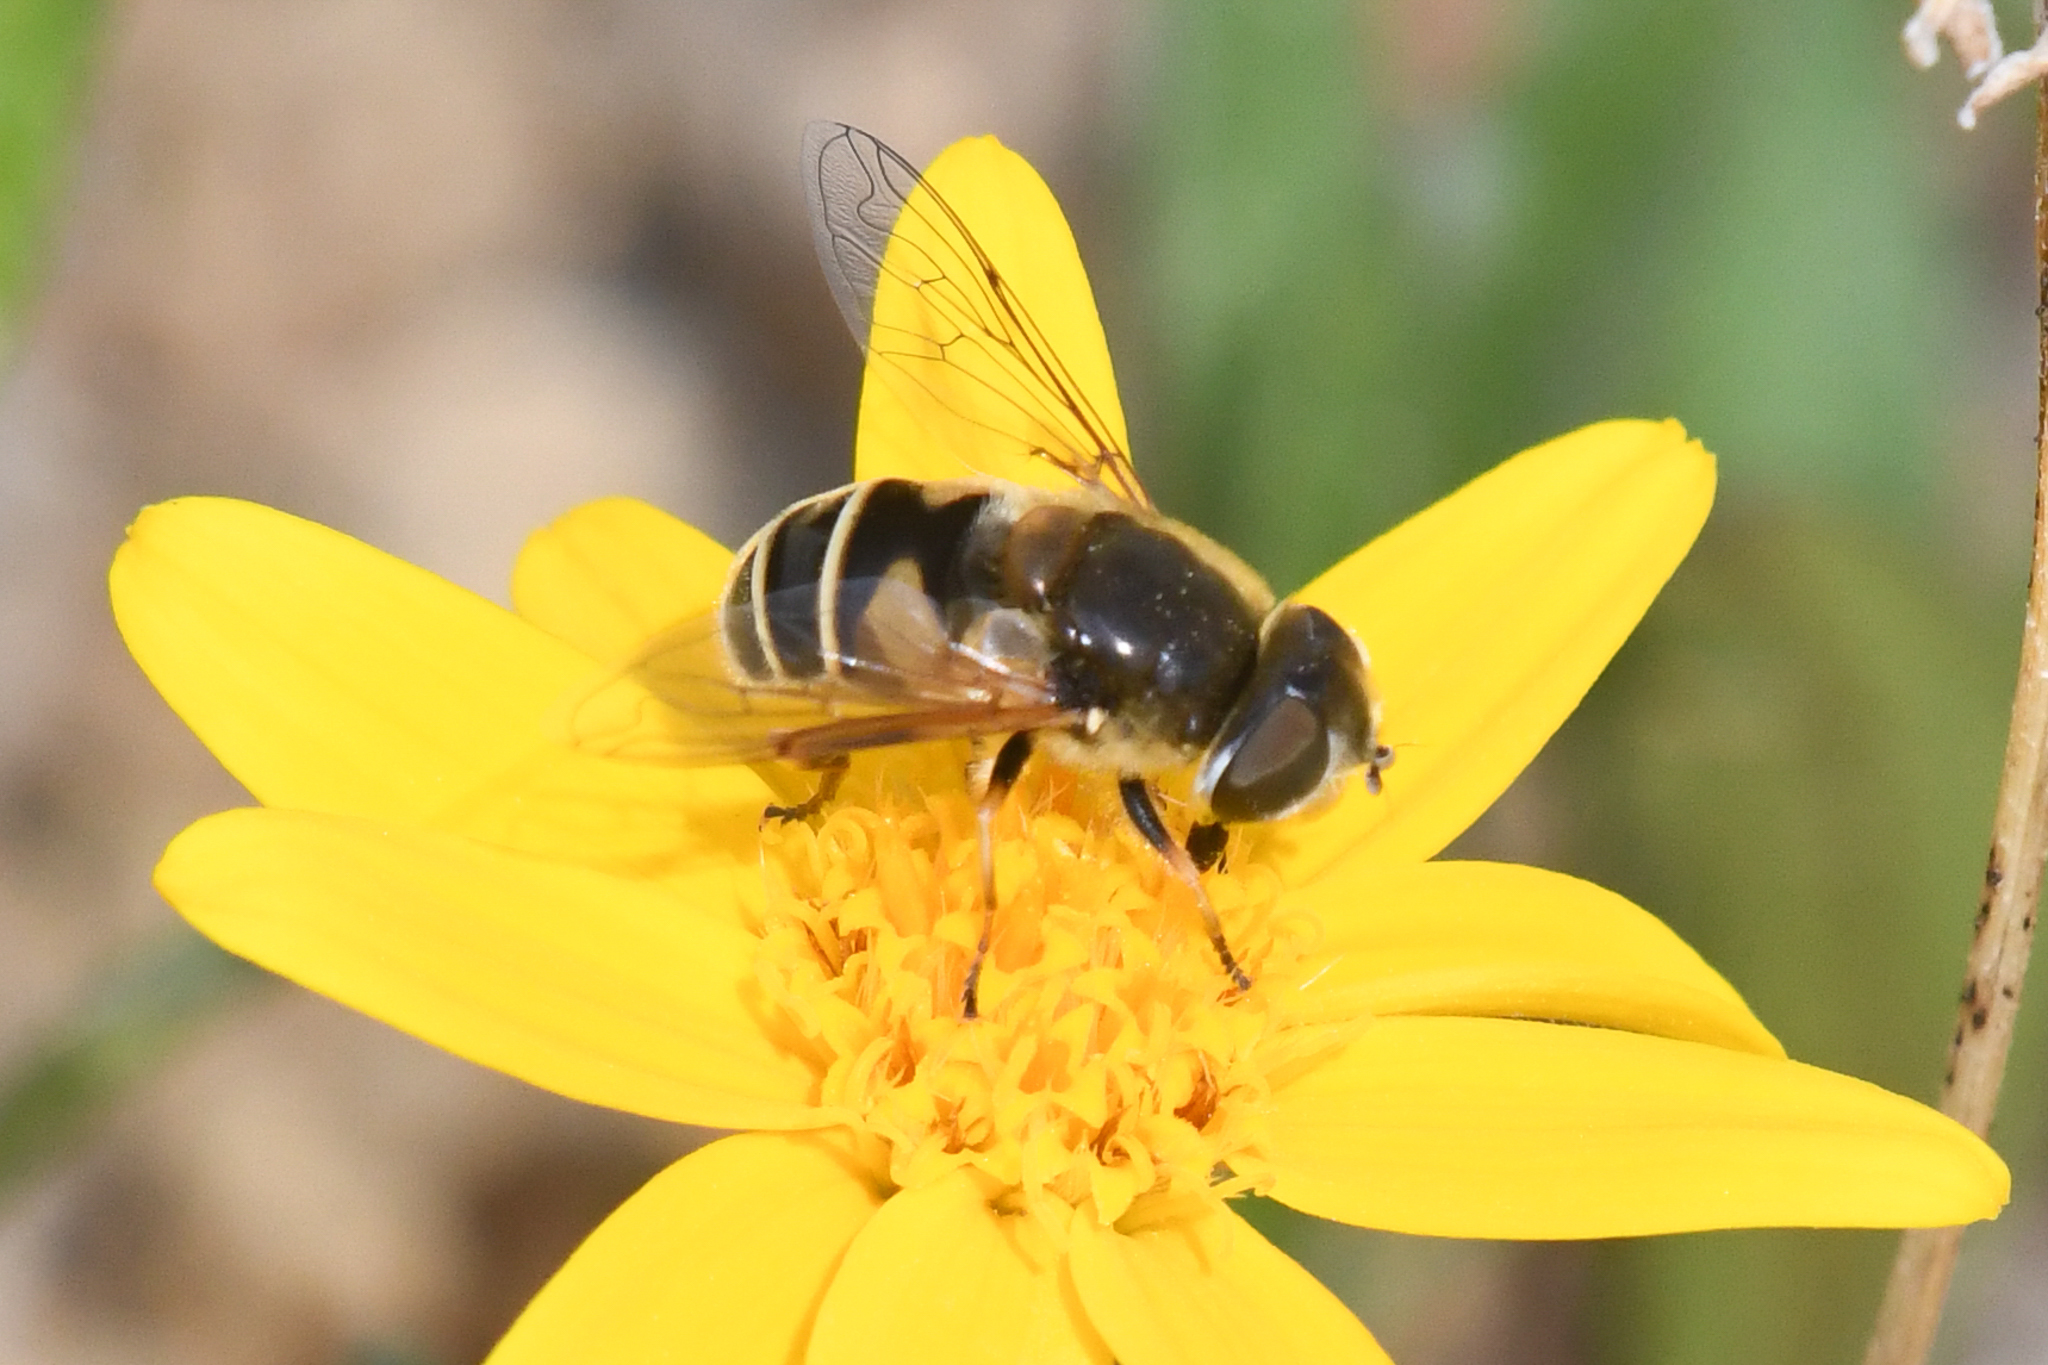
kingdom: Animalia
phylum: Arthropoda
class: Insecta
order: Diptera
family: Syrphidae
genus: Eristalis
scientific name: Eristalis nemorum
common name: Orange-spined drone fly
